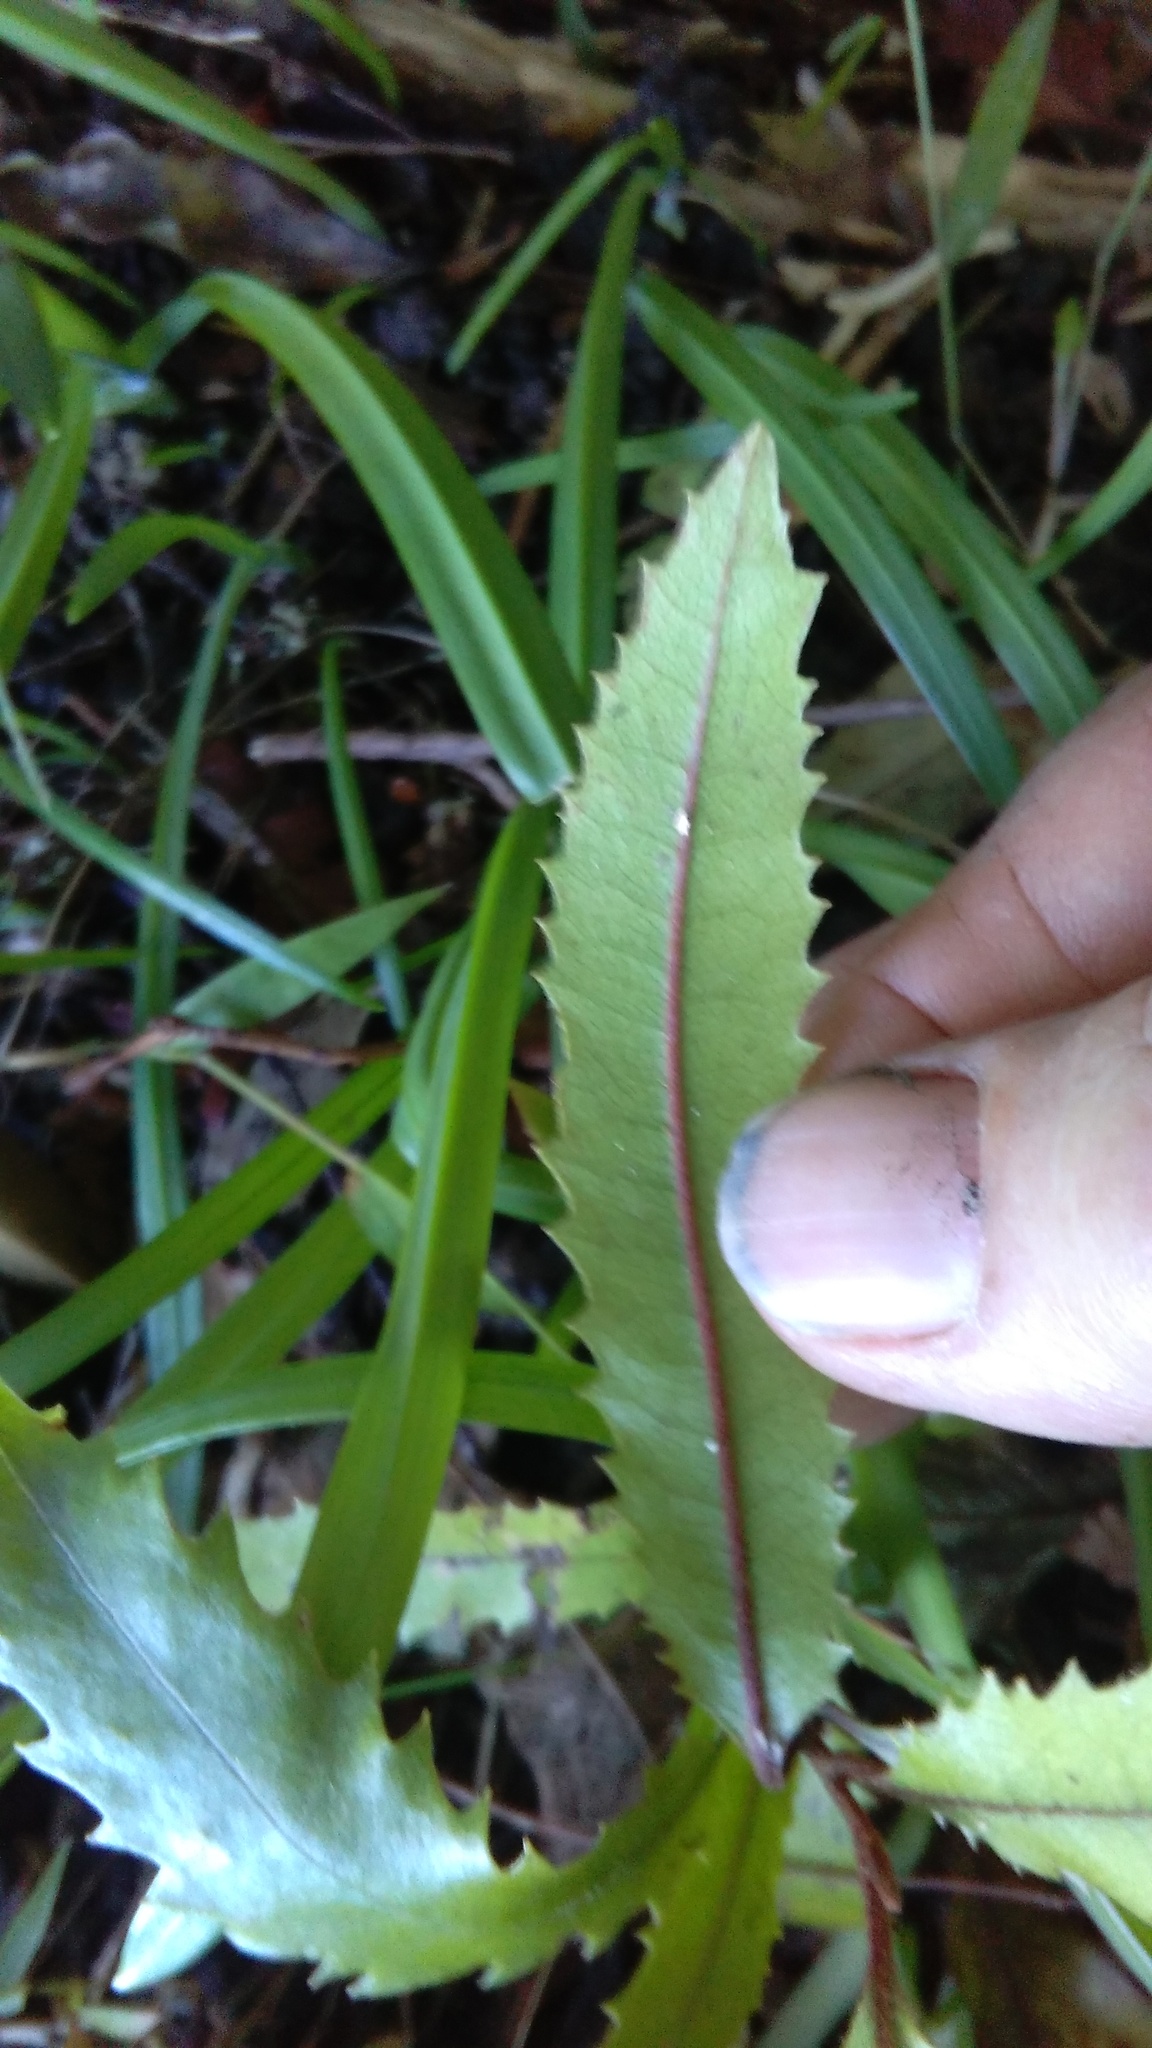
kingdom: Plantae
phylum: Tracheophyta
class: Magnoliopsida
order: Proteales
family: Proteaceae
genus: Knightia
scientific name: Knightia excelsa
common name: New zealand-honeysuckle
